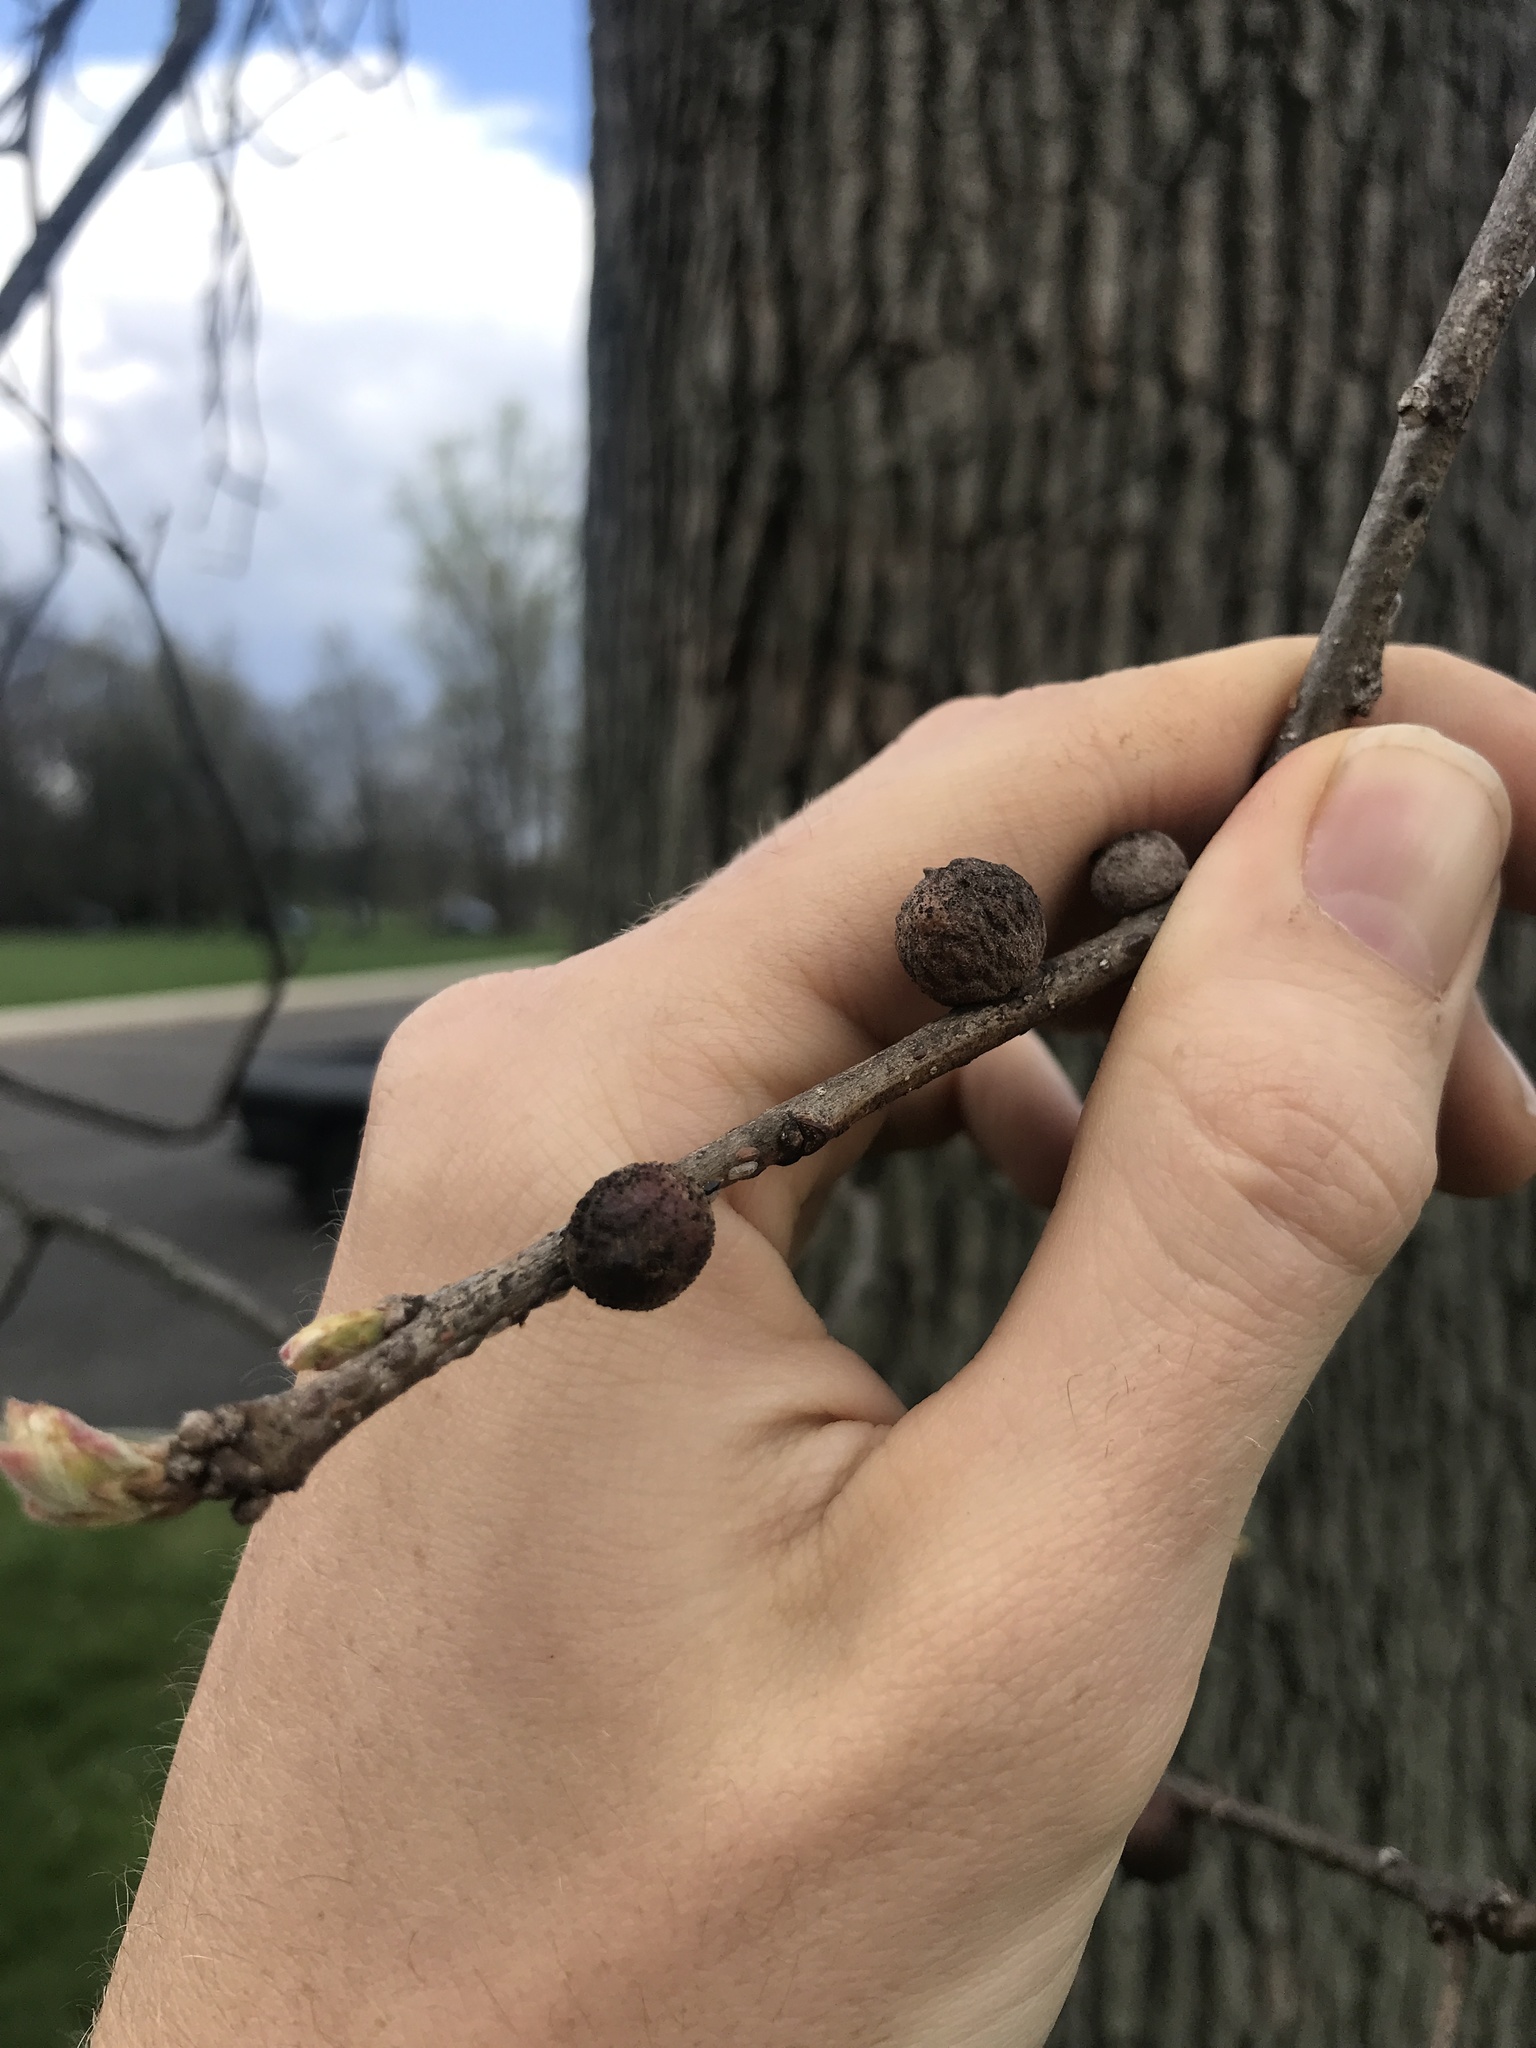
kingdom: Animalia
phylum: Arthropoda
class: Insecta
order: Hymenoptera
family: Cynipidae
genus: Disholcaspis
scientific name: Disholcaspis
